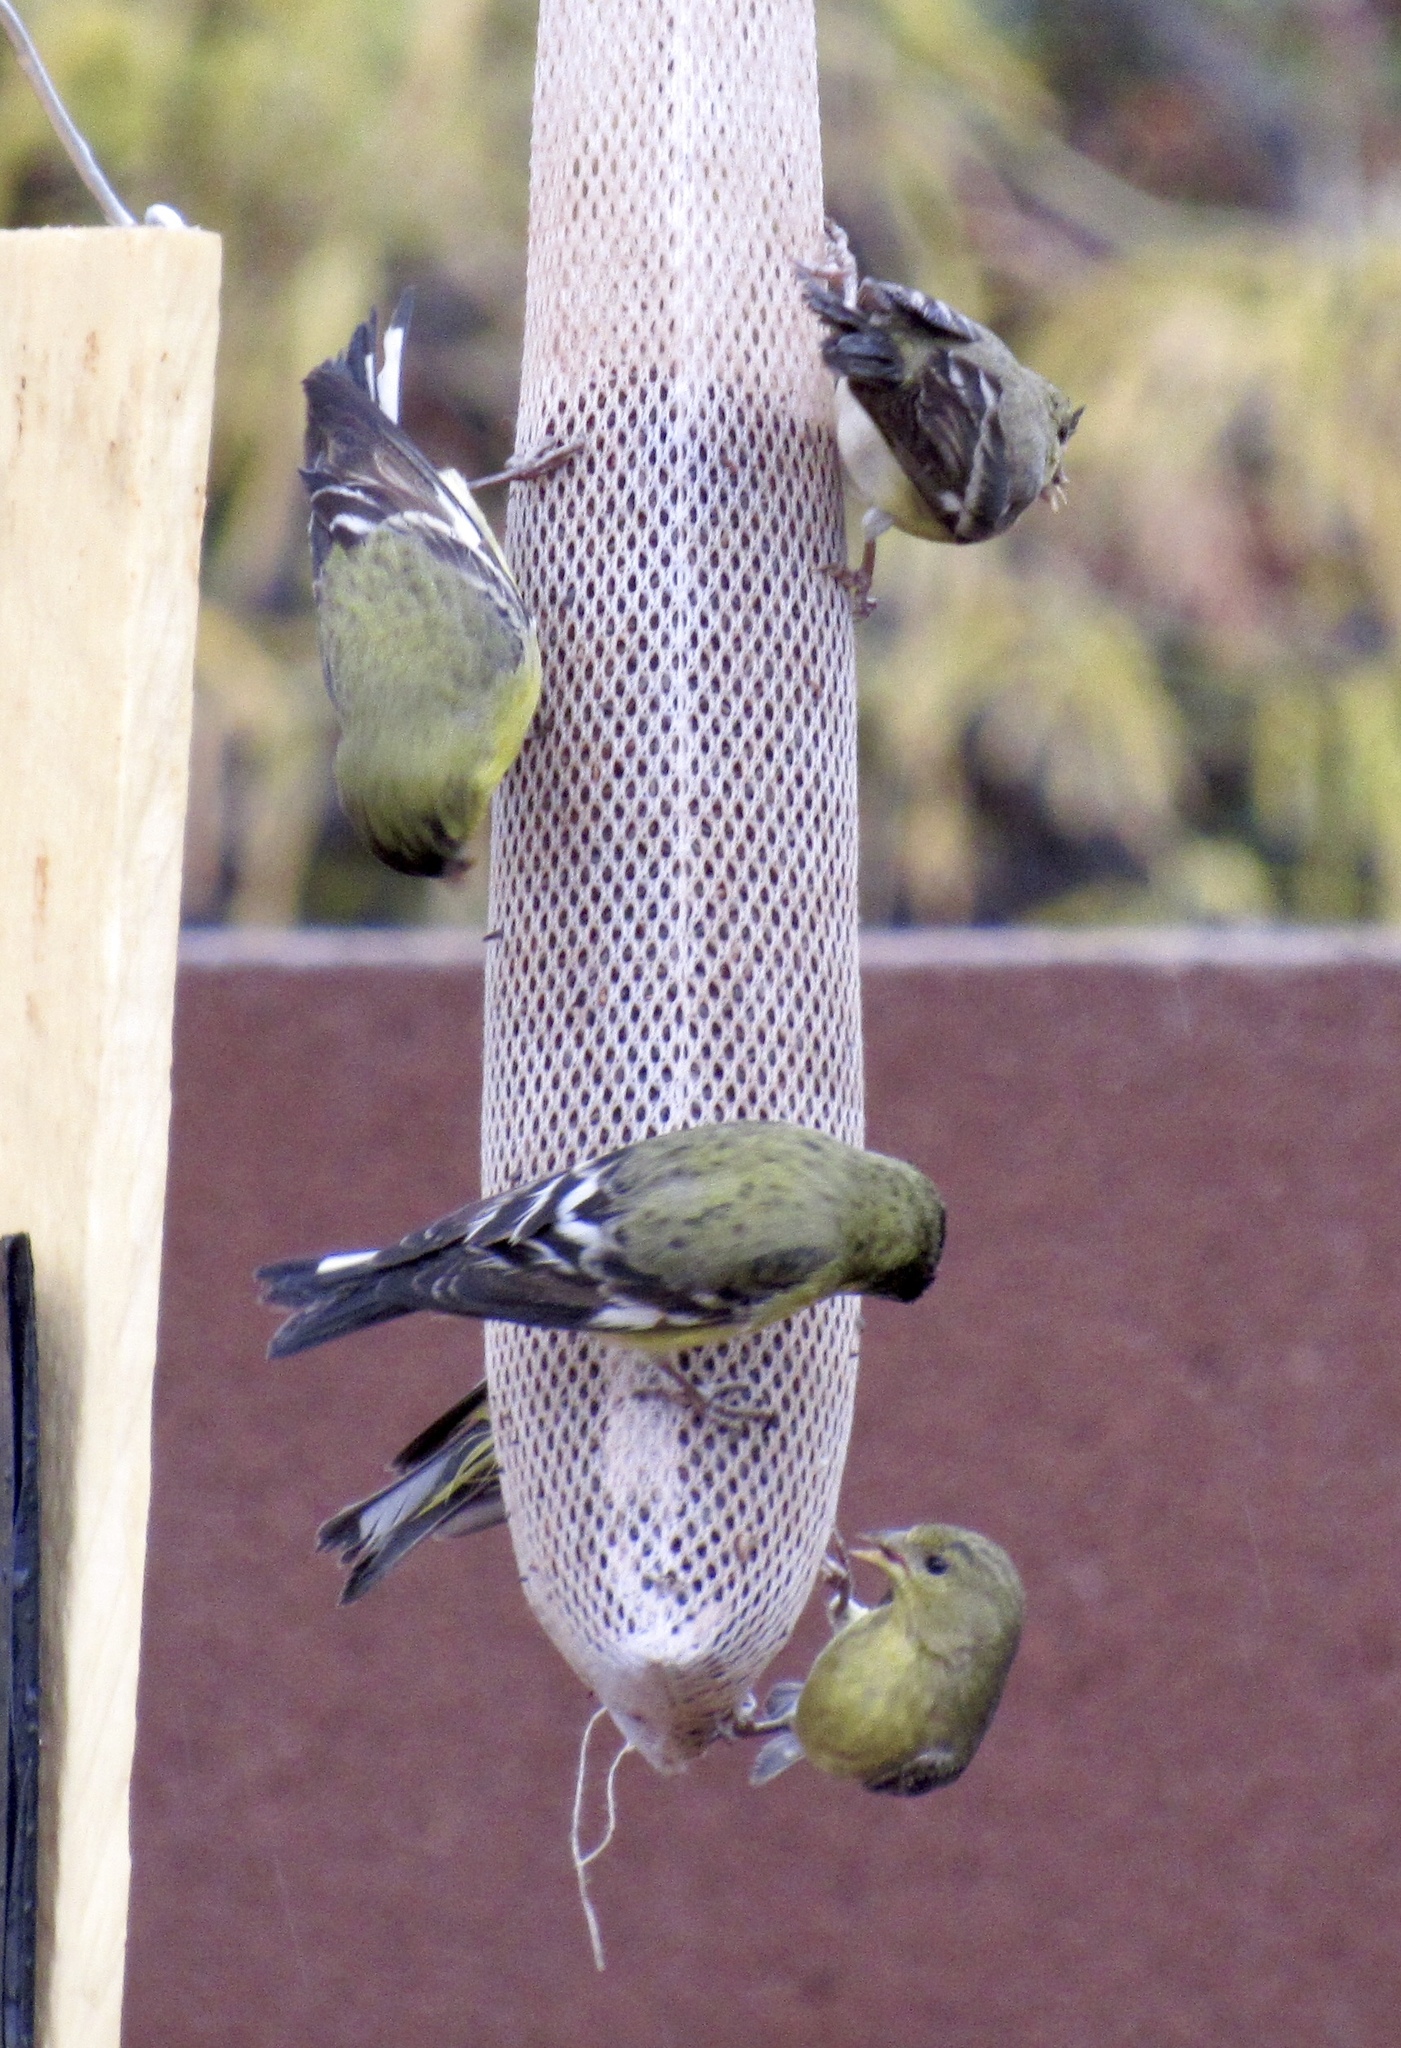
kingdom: Animalia
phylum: Chordata
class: Aves
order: Passeriformes
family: Fringillidae
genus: Spinus
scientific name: Spinus psaltria
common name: Lesser goldfinch
